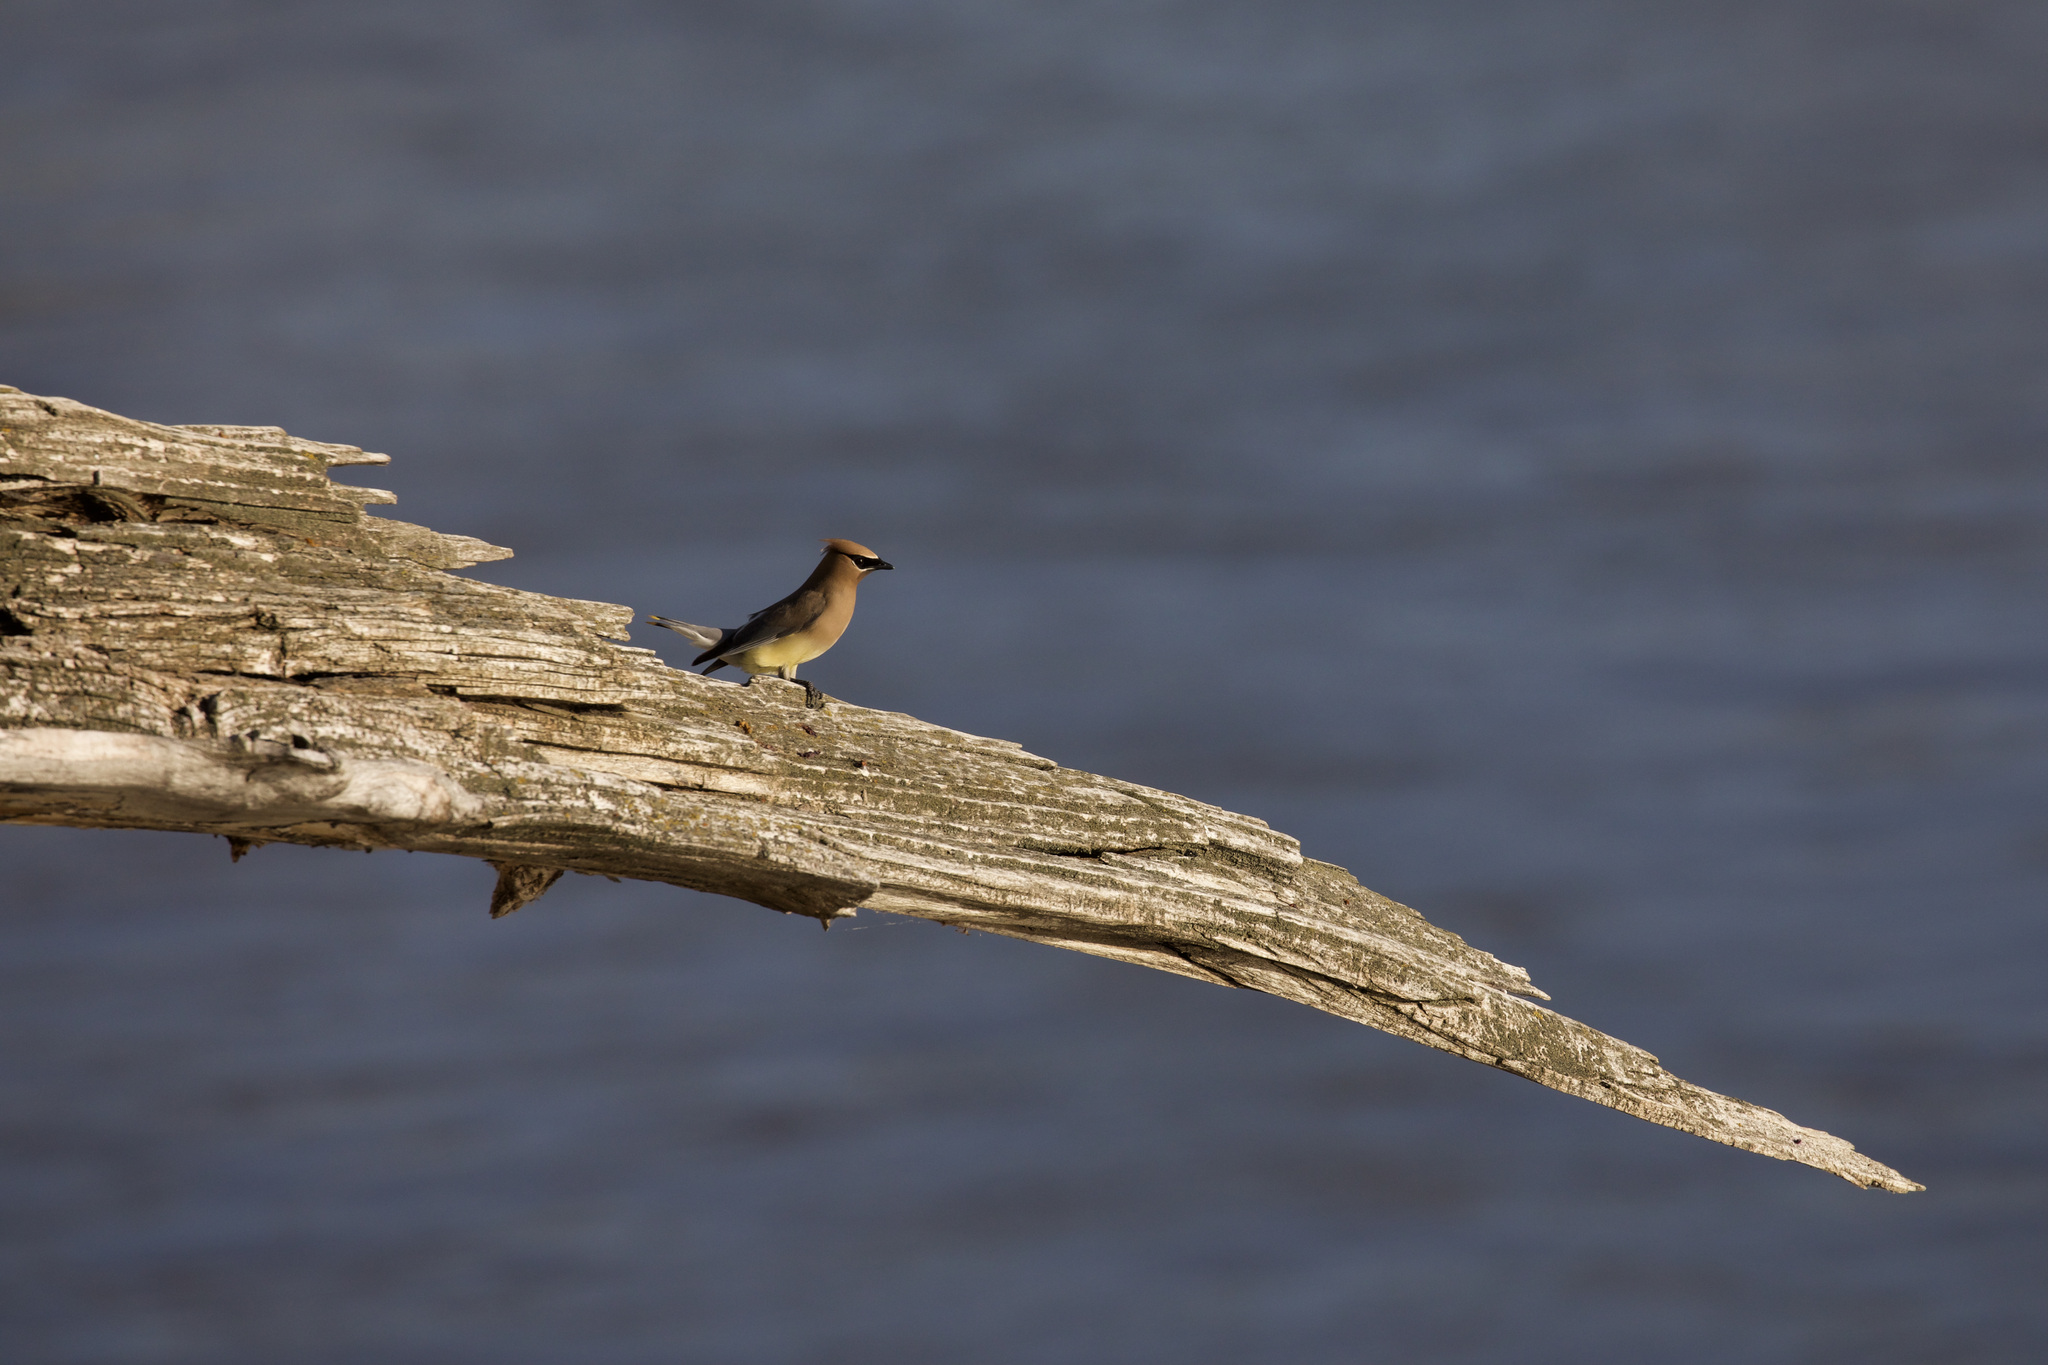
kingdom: Animalia
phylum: Chordata
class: Aves
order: Passeriformes
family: Bombycillidae
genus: Bombycilla
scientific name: Bombycilla cedrorum
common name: Cedar waxwing
